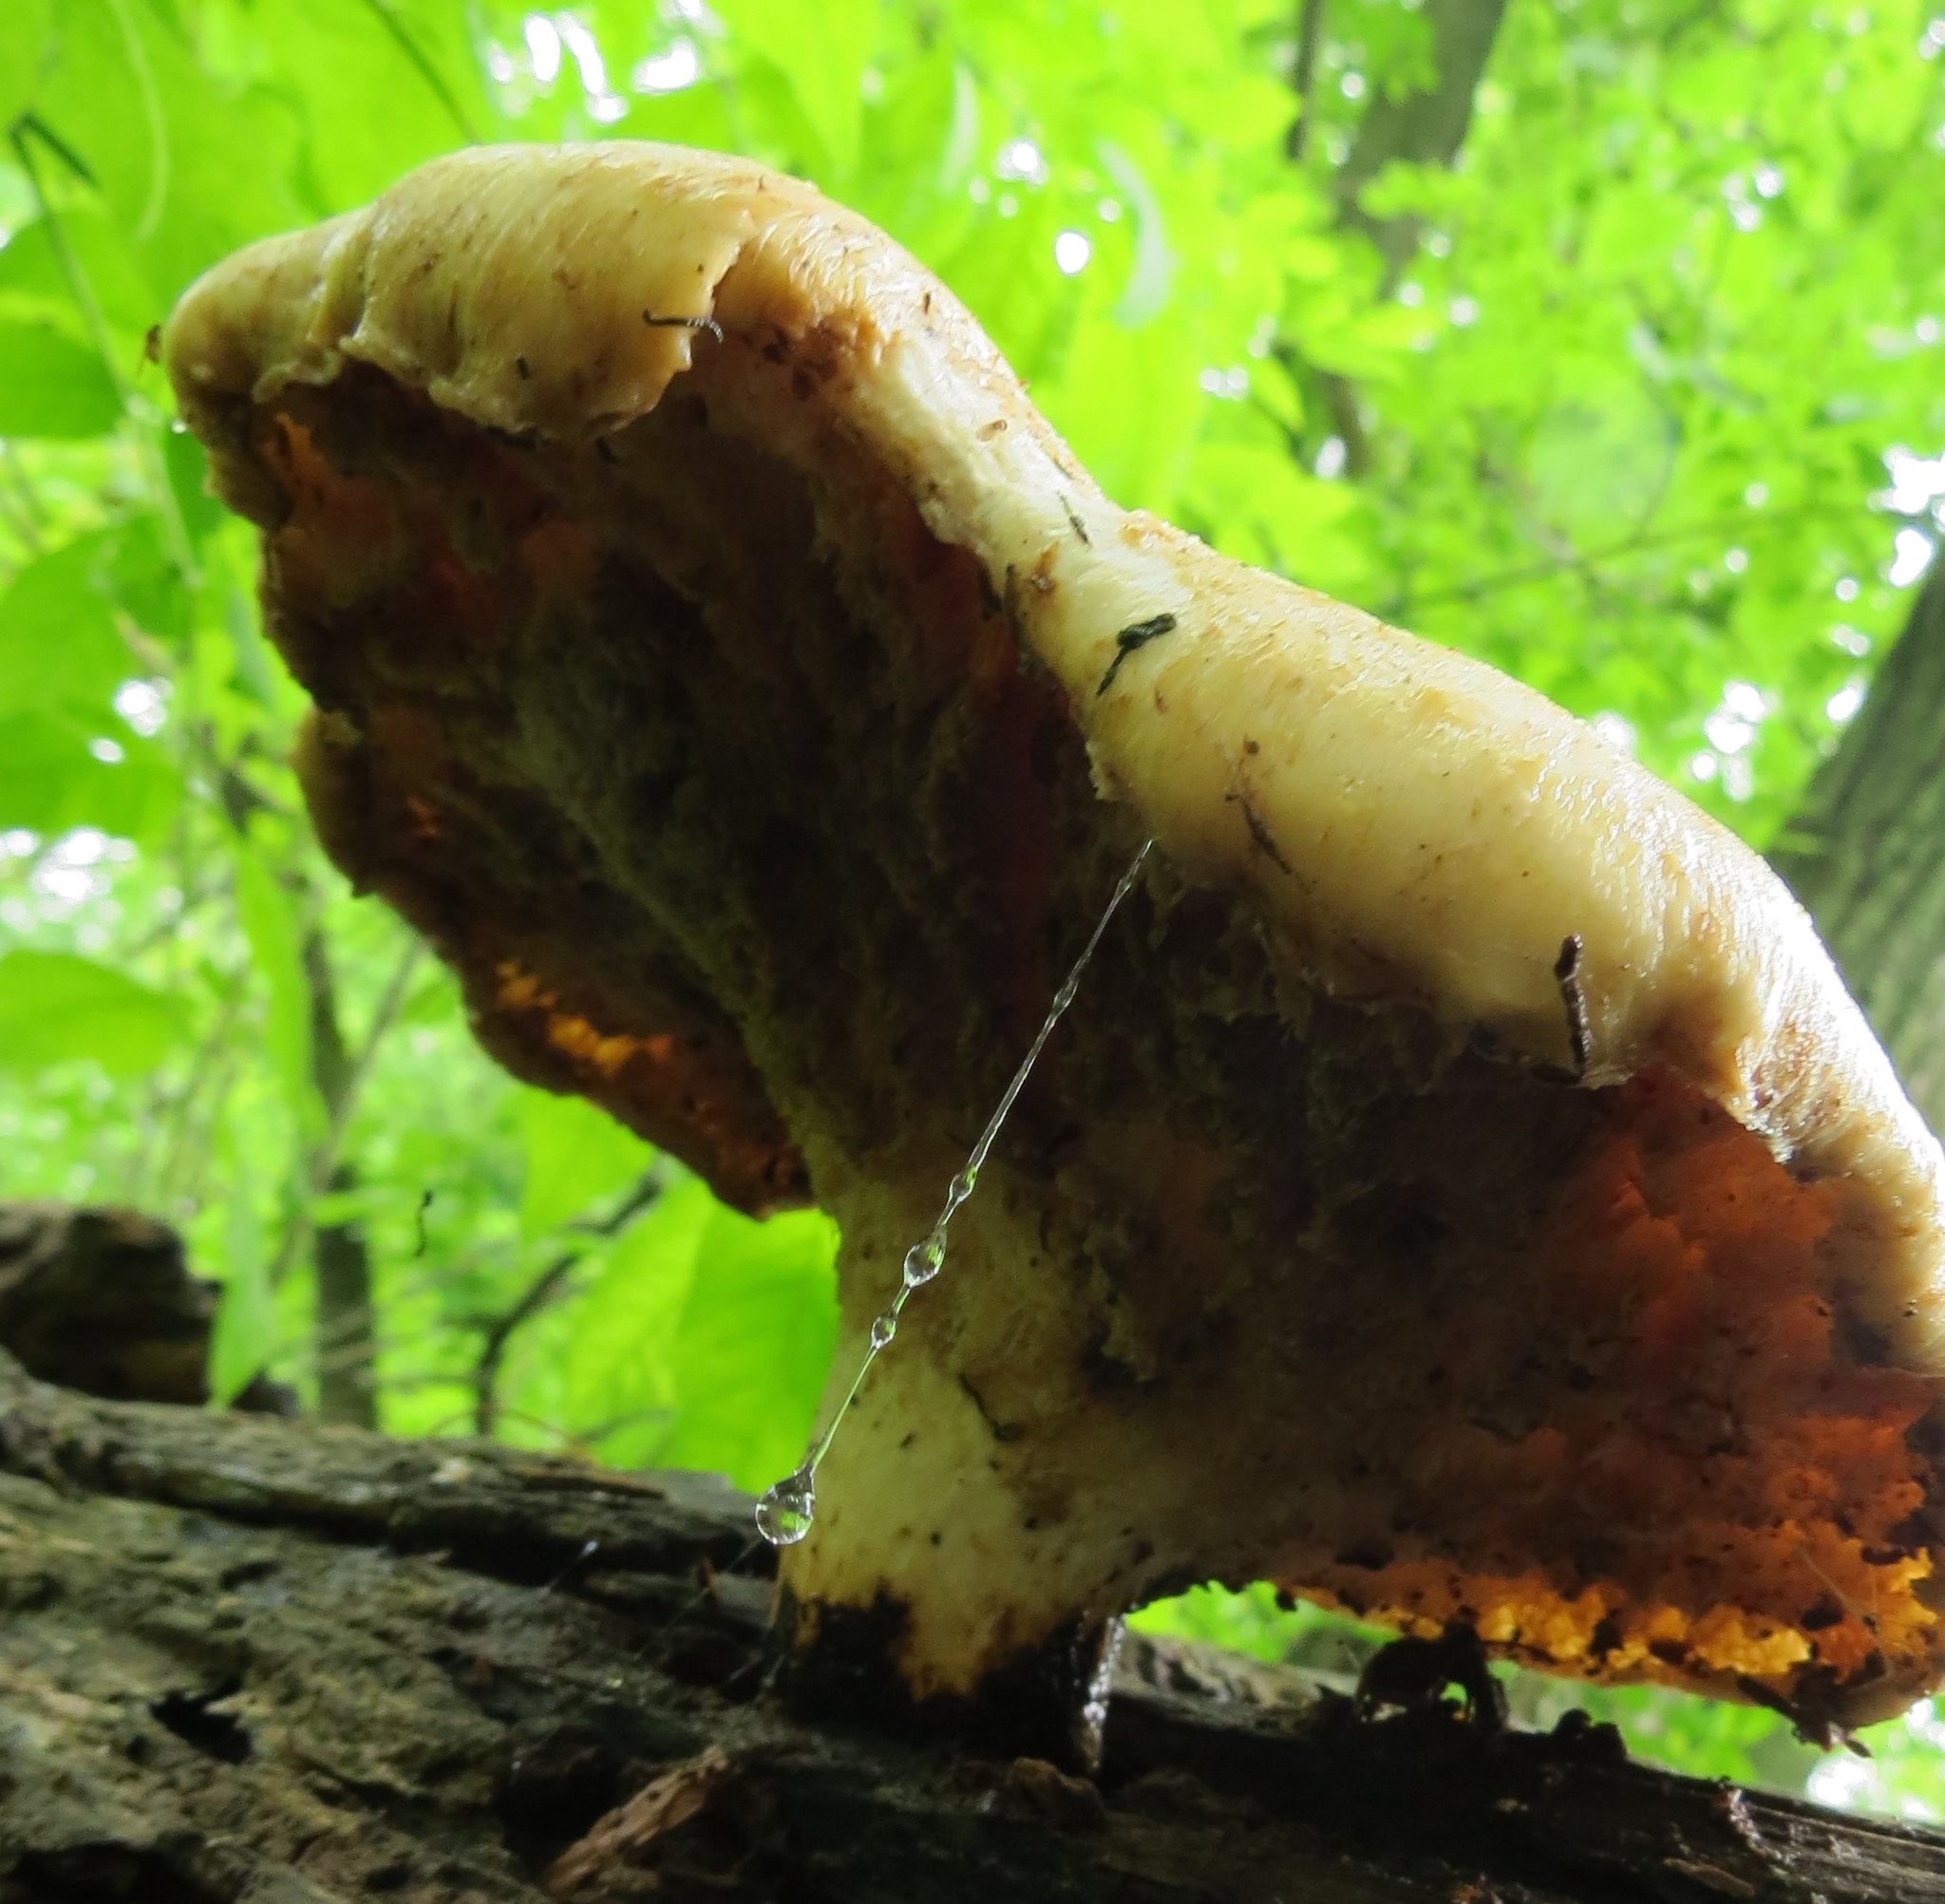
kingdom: Fungi
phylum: Basidiomycota
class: Agaricomycetes
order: Polyporales
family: Polyporaceae
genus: Cerioporus
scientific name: Cerioporus squamosus
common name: Dryad's saddle
